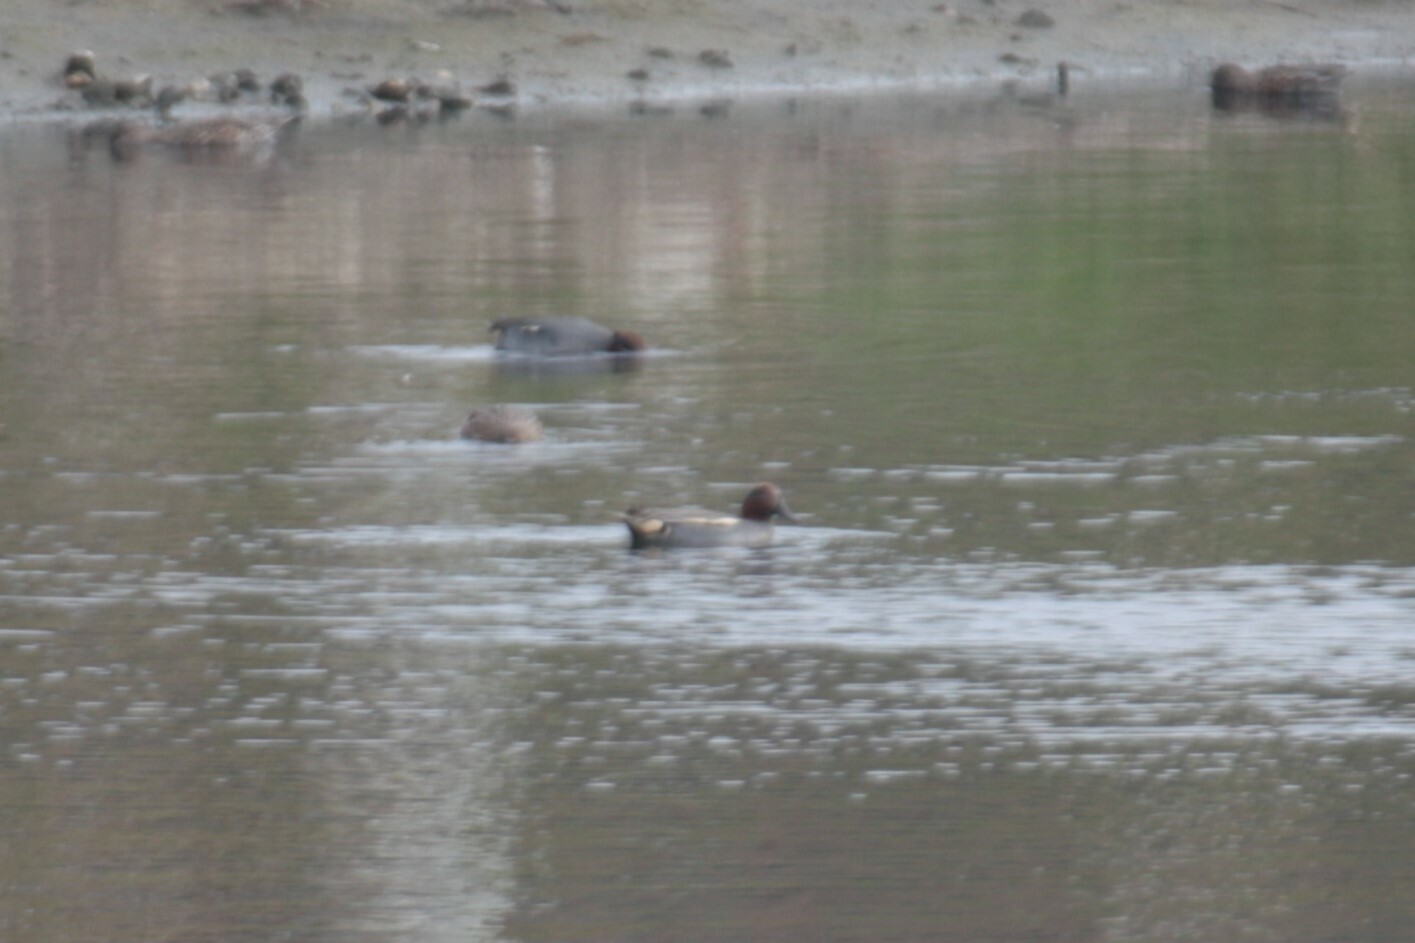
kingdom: Animalia
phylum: Chordata
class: Aves
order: Anseriformes
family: Anatidae
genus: Anas
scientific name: Anas crecca
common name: Eurasian teal
